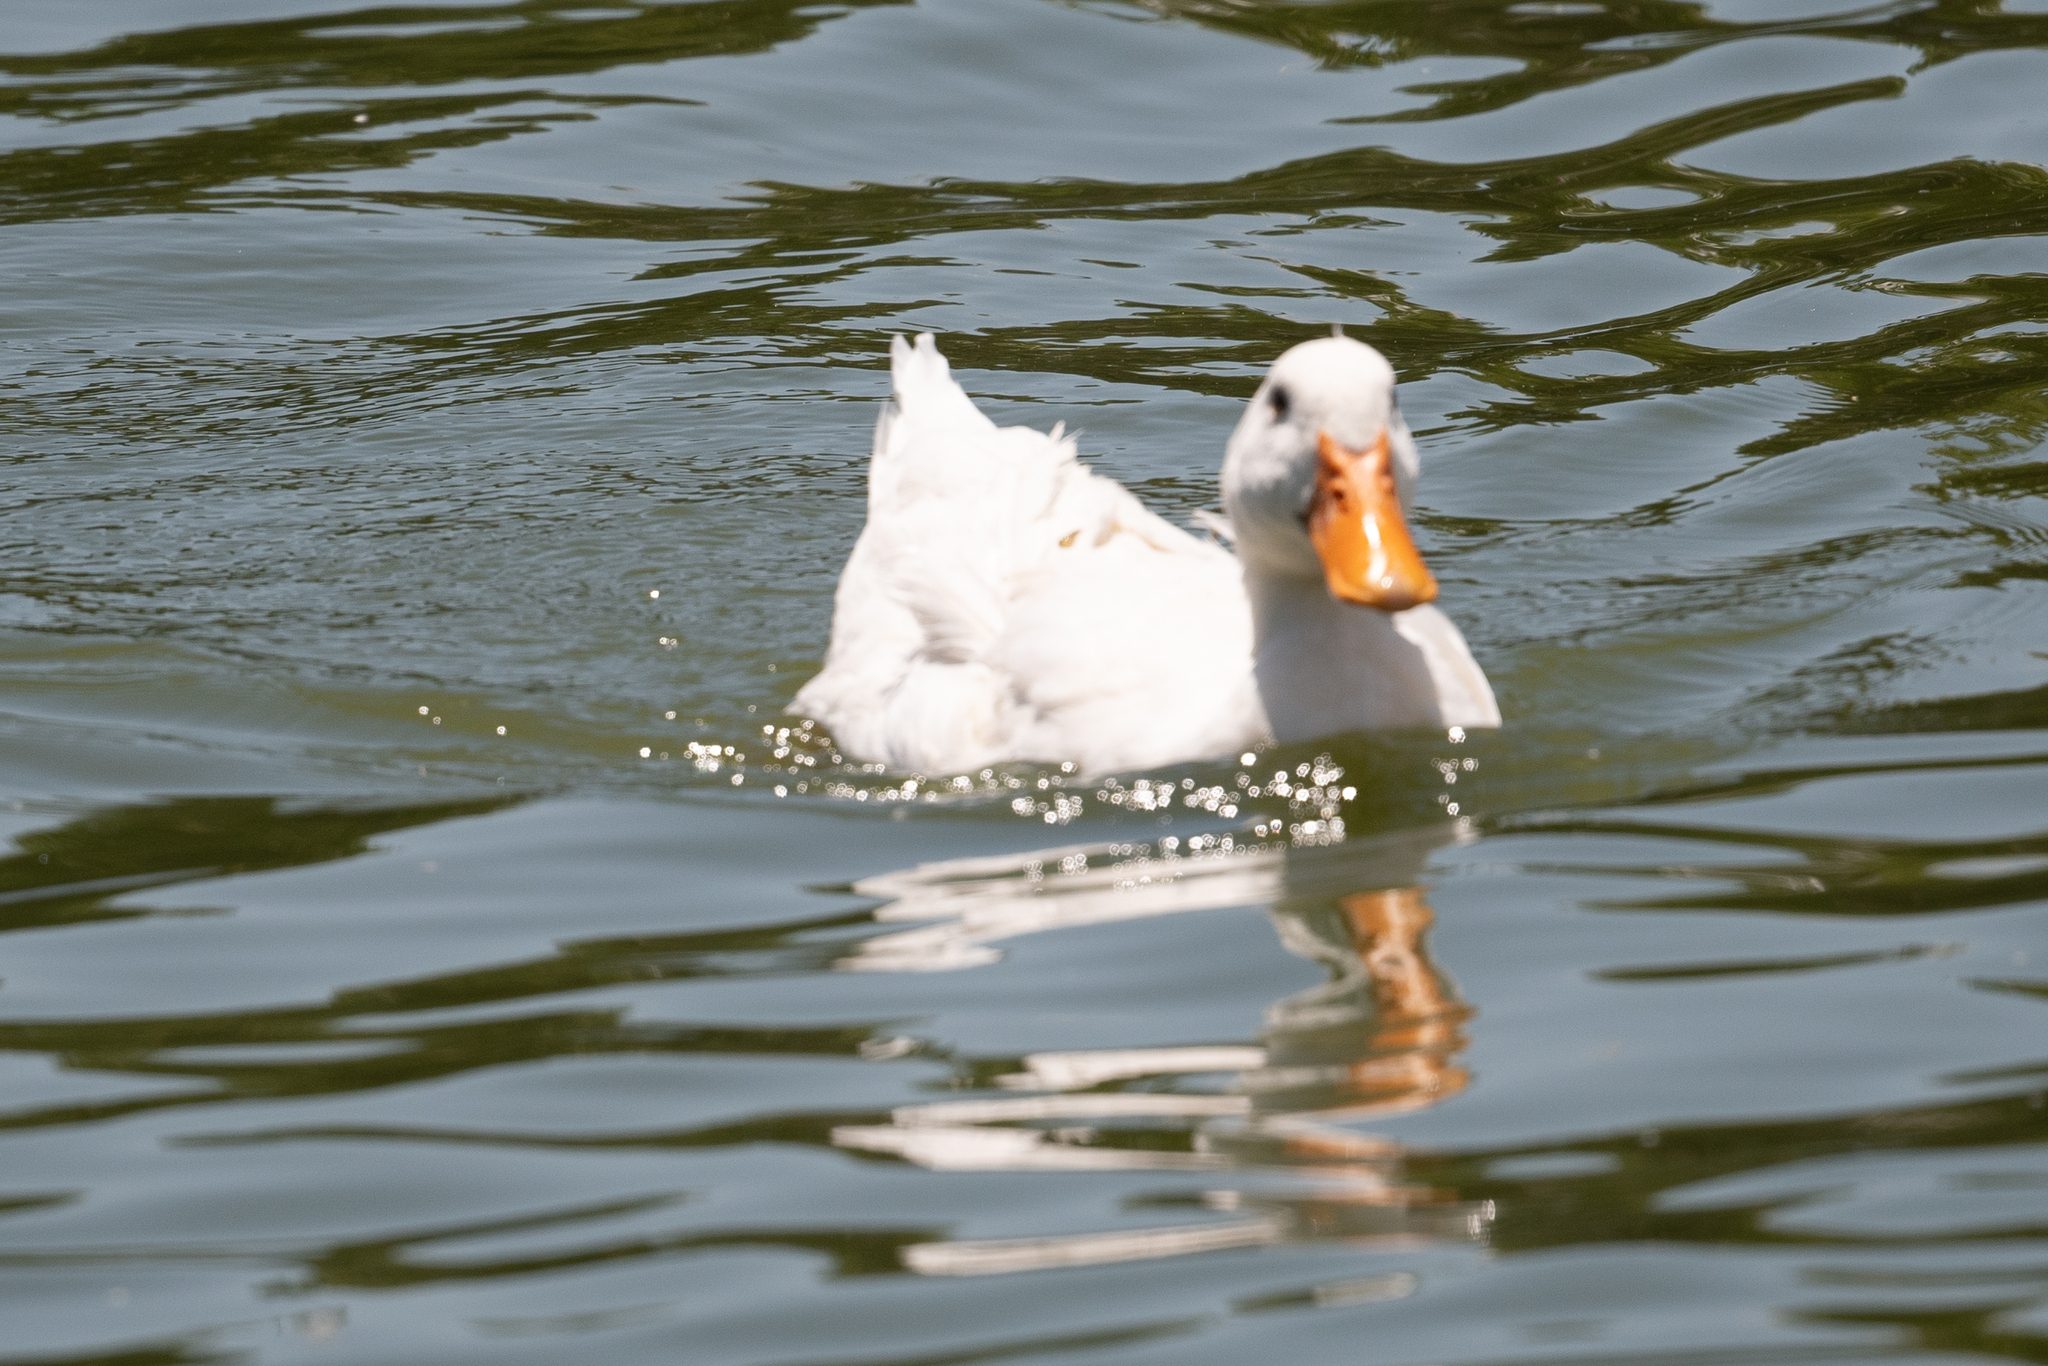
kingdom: Animalia
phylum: Chordata
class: Aves
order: Anseriformes
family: Anatidae
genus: Anas
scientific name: Anas platyrhynchos
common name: Mallard
